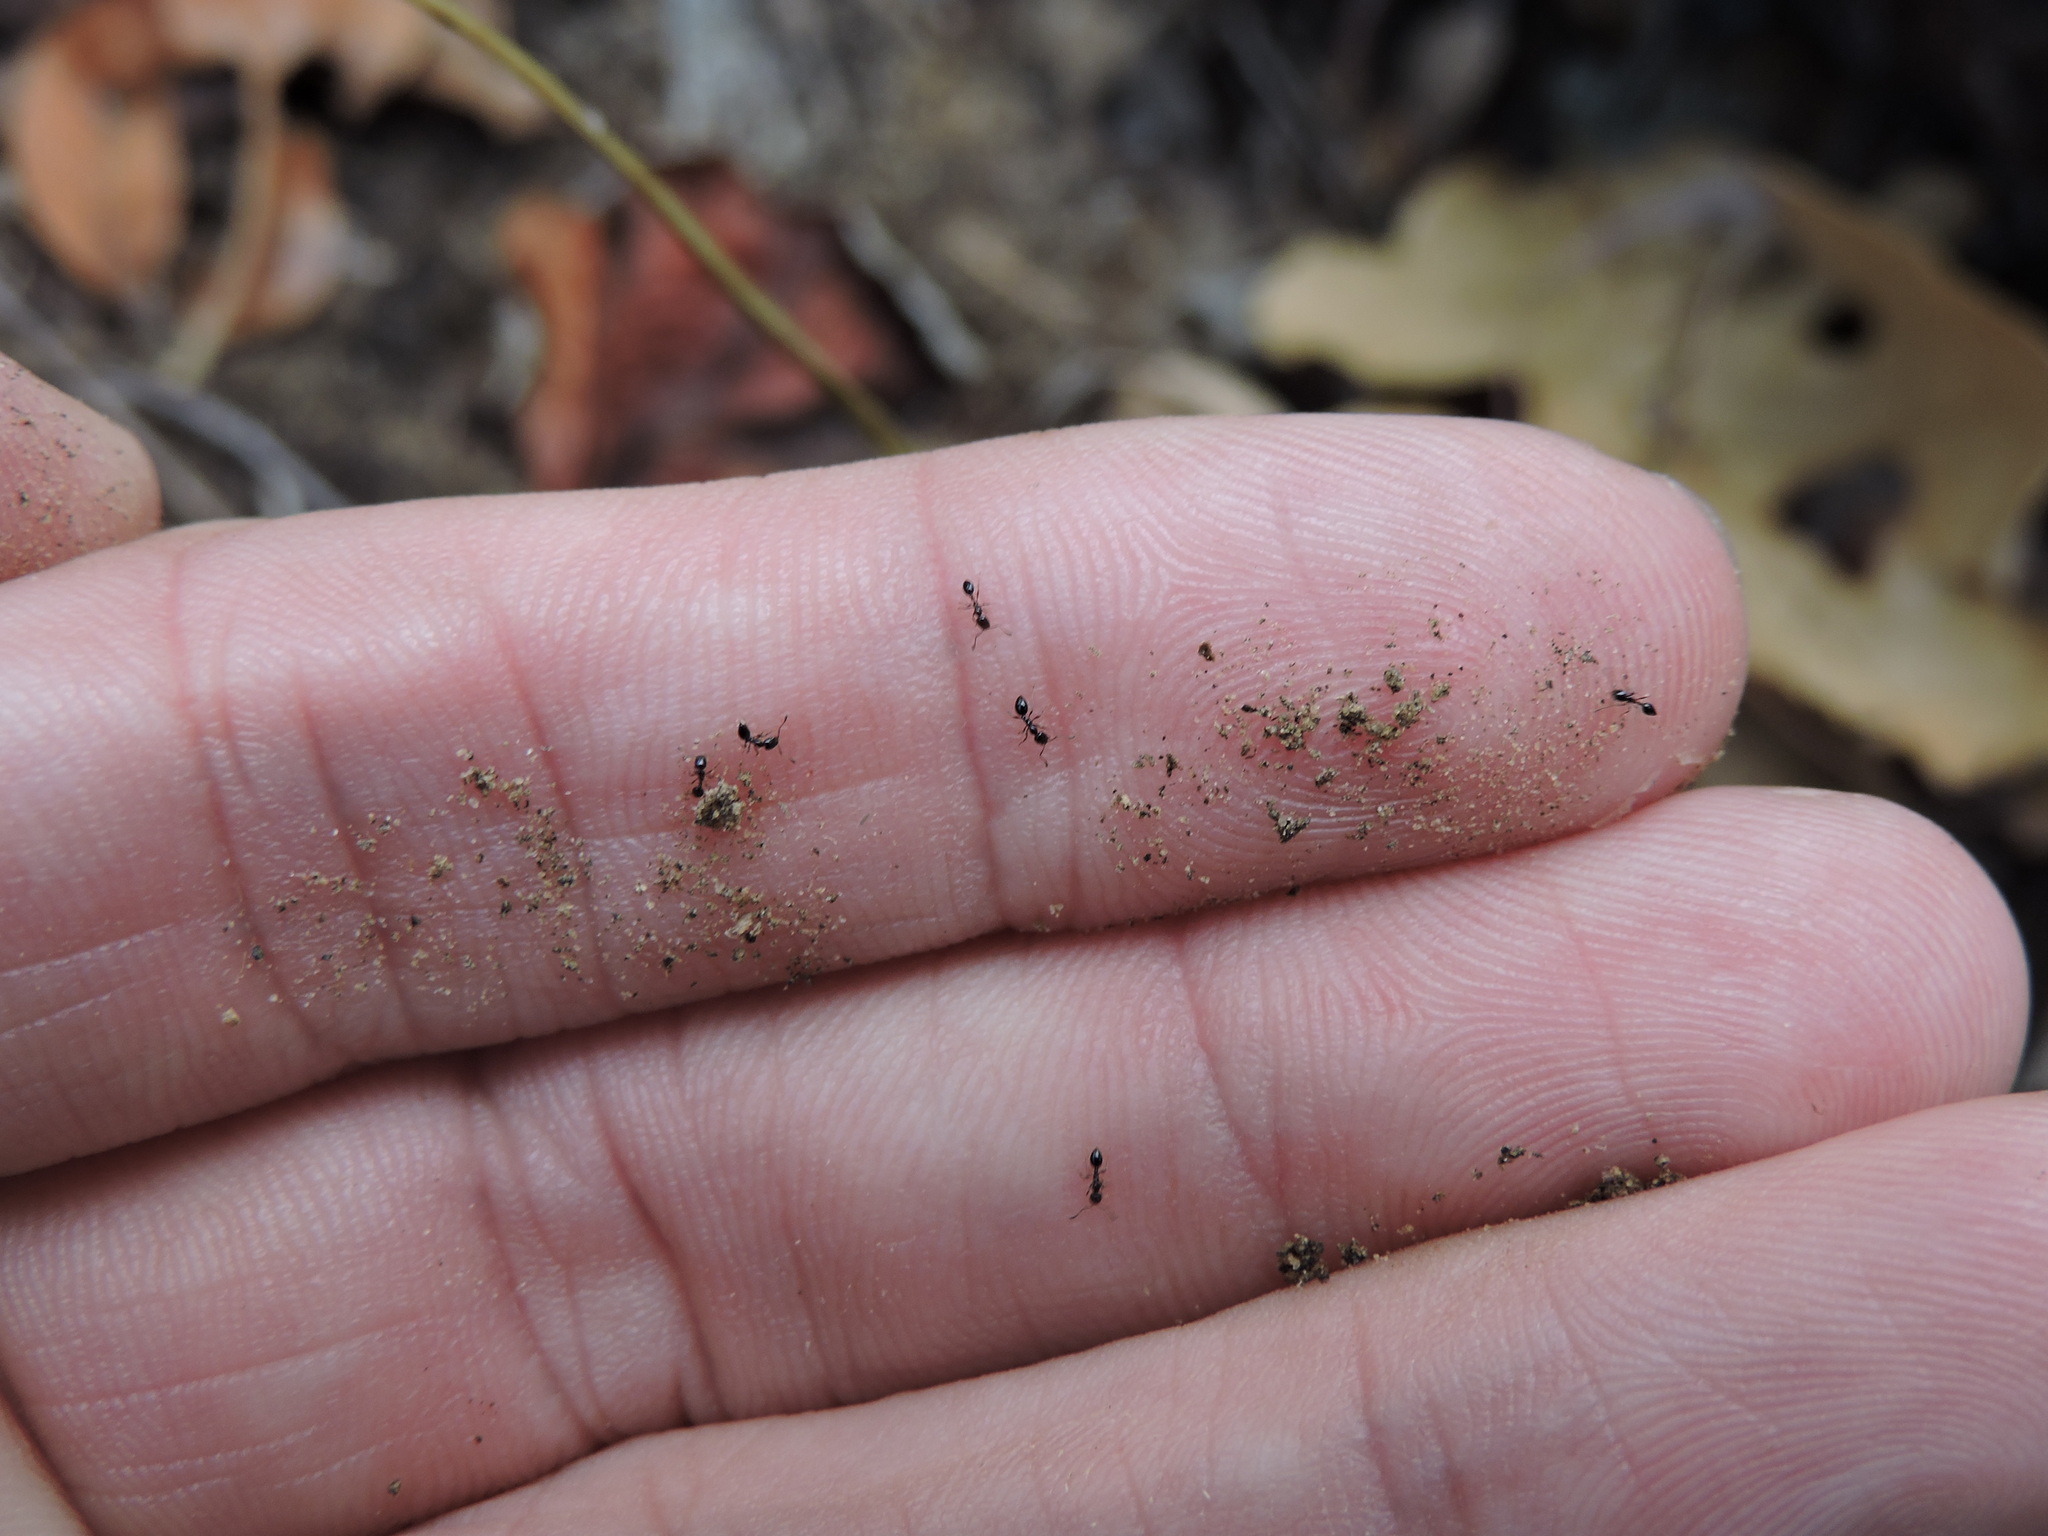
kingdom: Animalia
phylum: Arthropoda
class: Insecta
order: Hymenoptera
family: Formicidae
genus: Monomorium
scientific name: Monomorium minimum
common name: Little black ant
